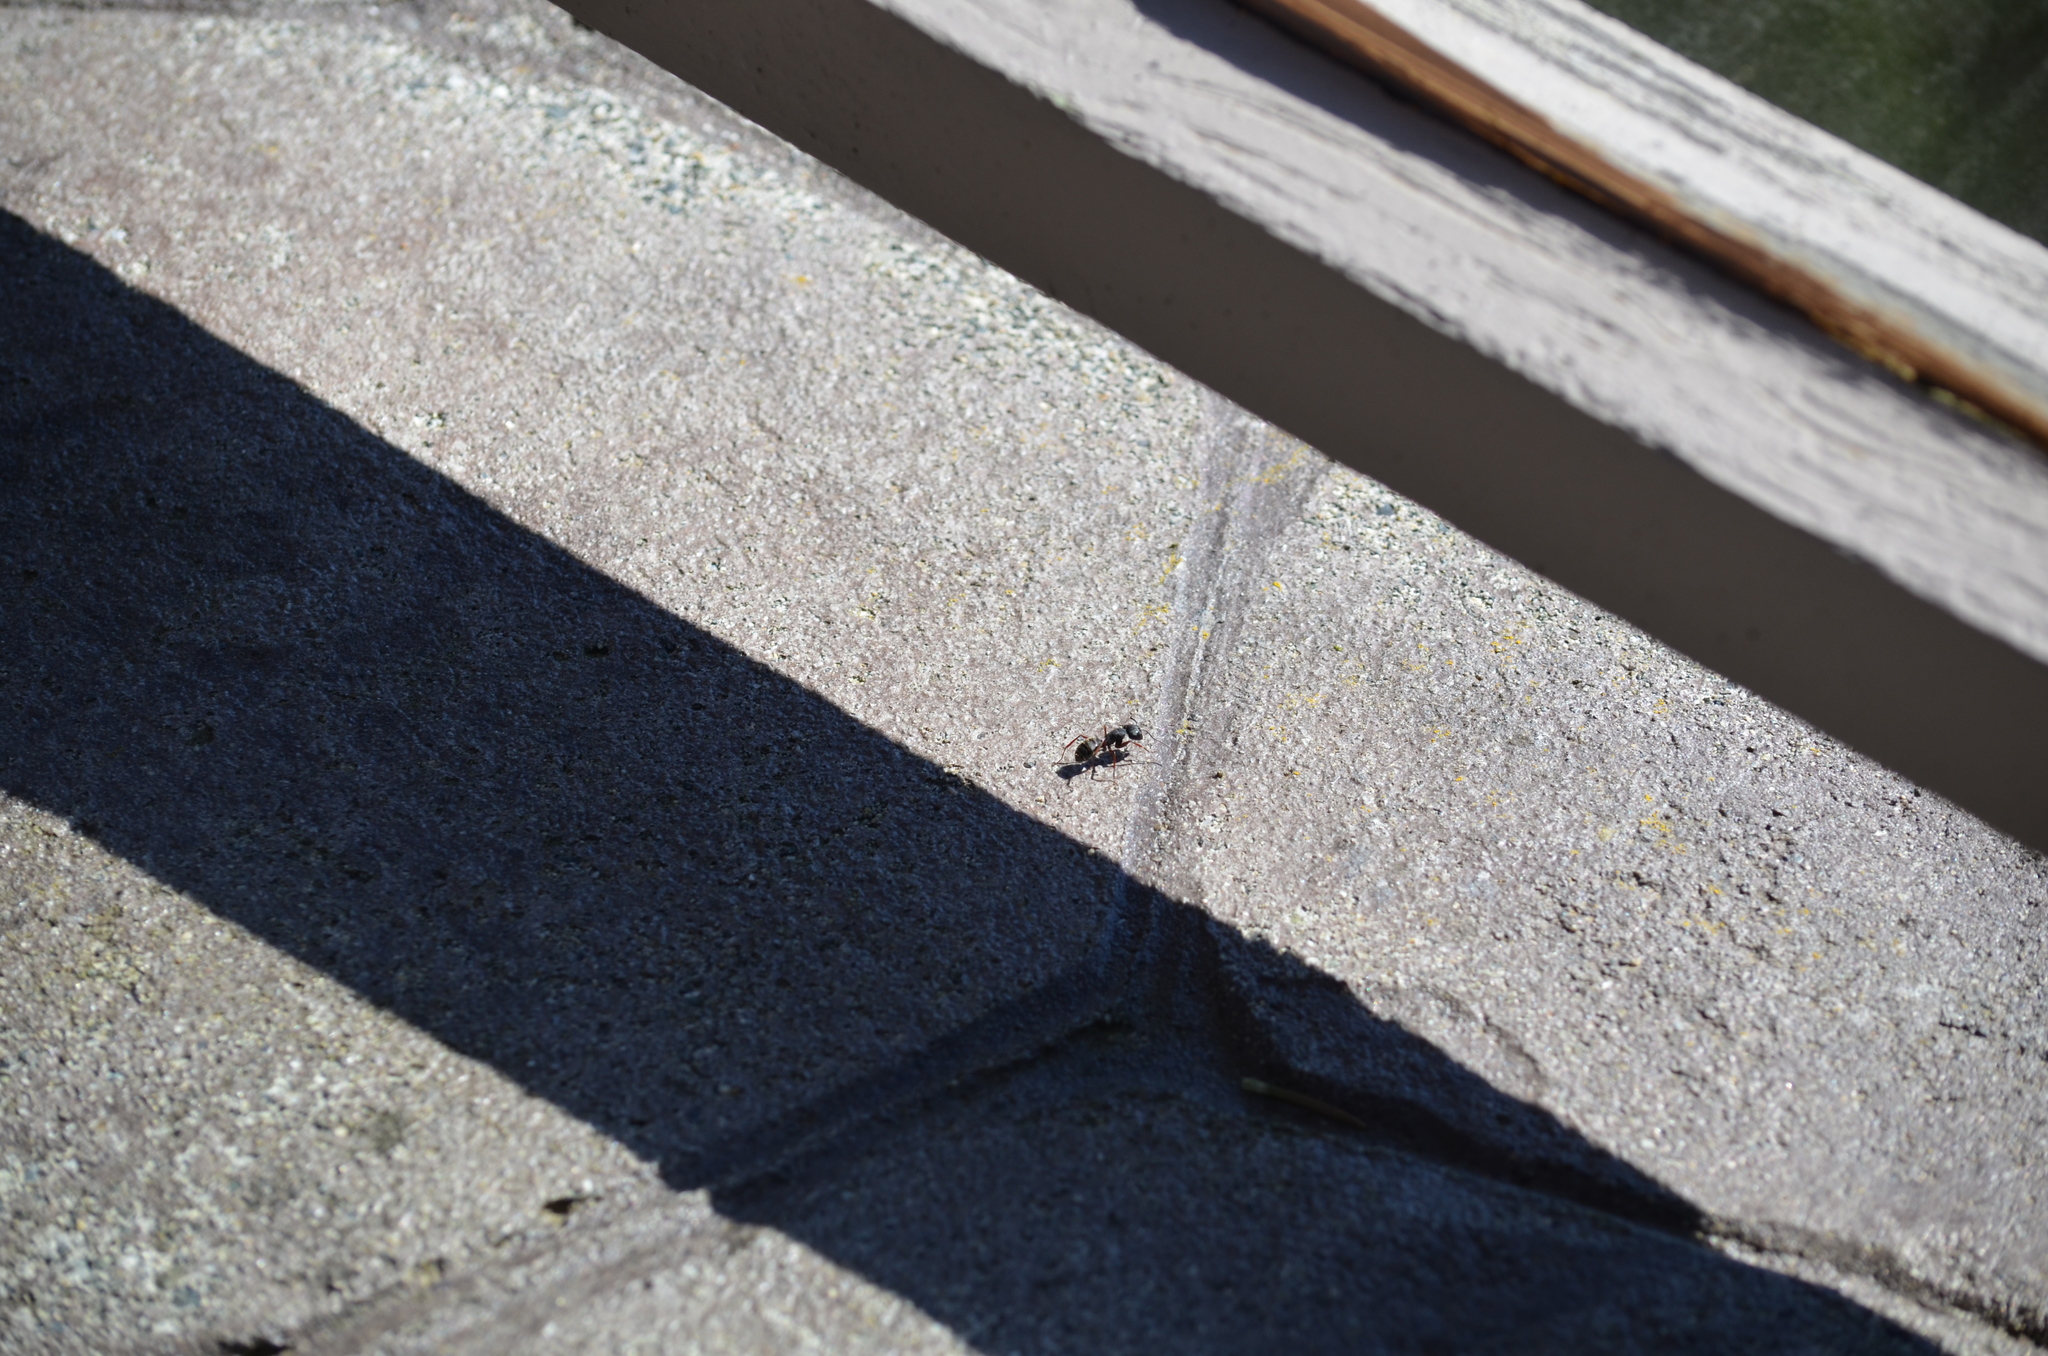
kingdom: Animalia
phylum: Arthropoda
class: Insecta
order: Hymenoptera
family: Formicidae
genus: Camponotus
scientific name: Camponotus modoc
